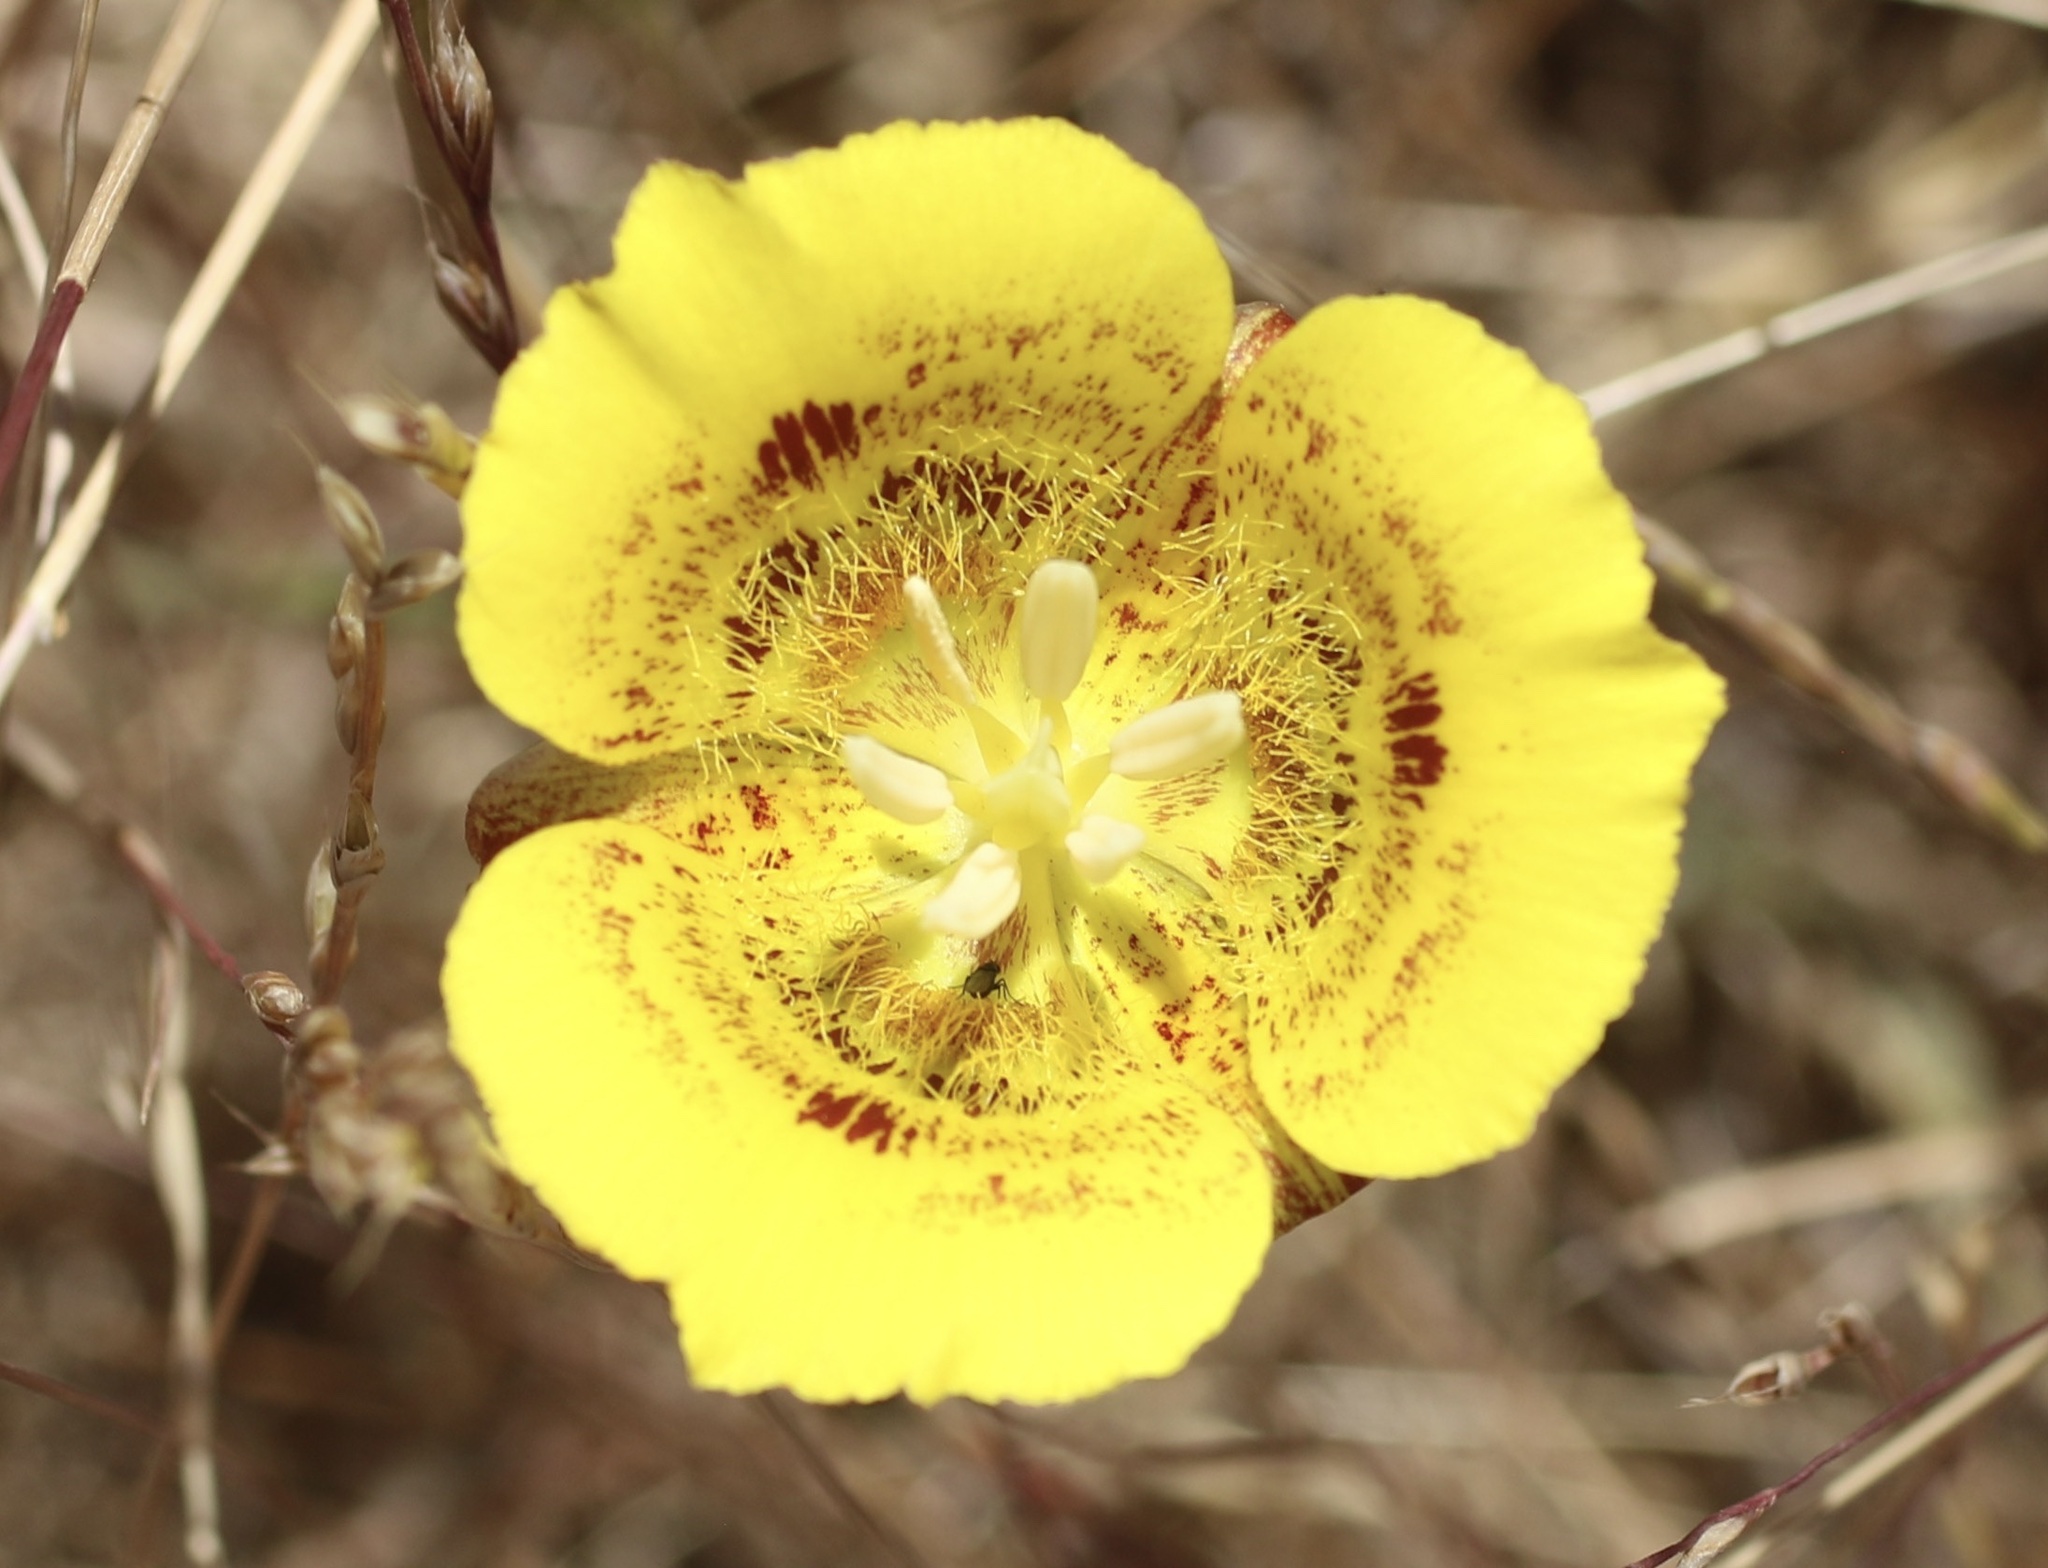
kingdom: Plantae
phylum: Tracheophyta
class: Liliopsida
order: Liliales
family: Liliaceae
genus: Calochortus
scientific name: Calochortus luteus
